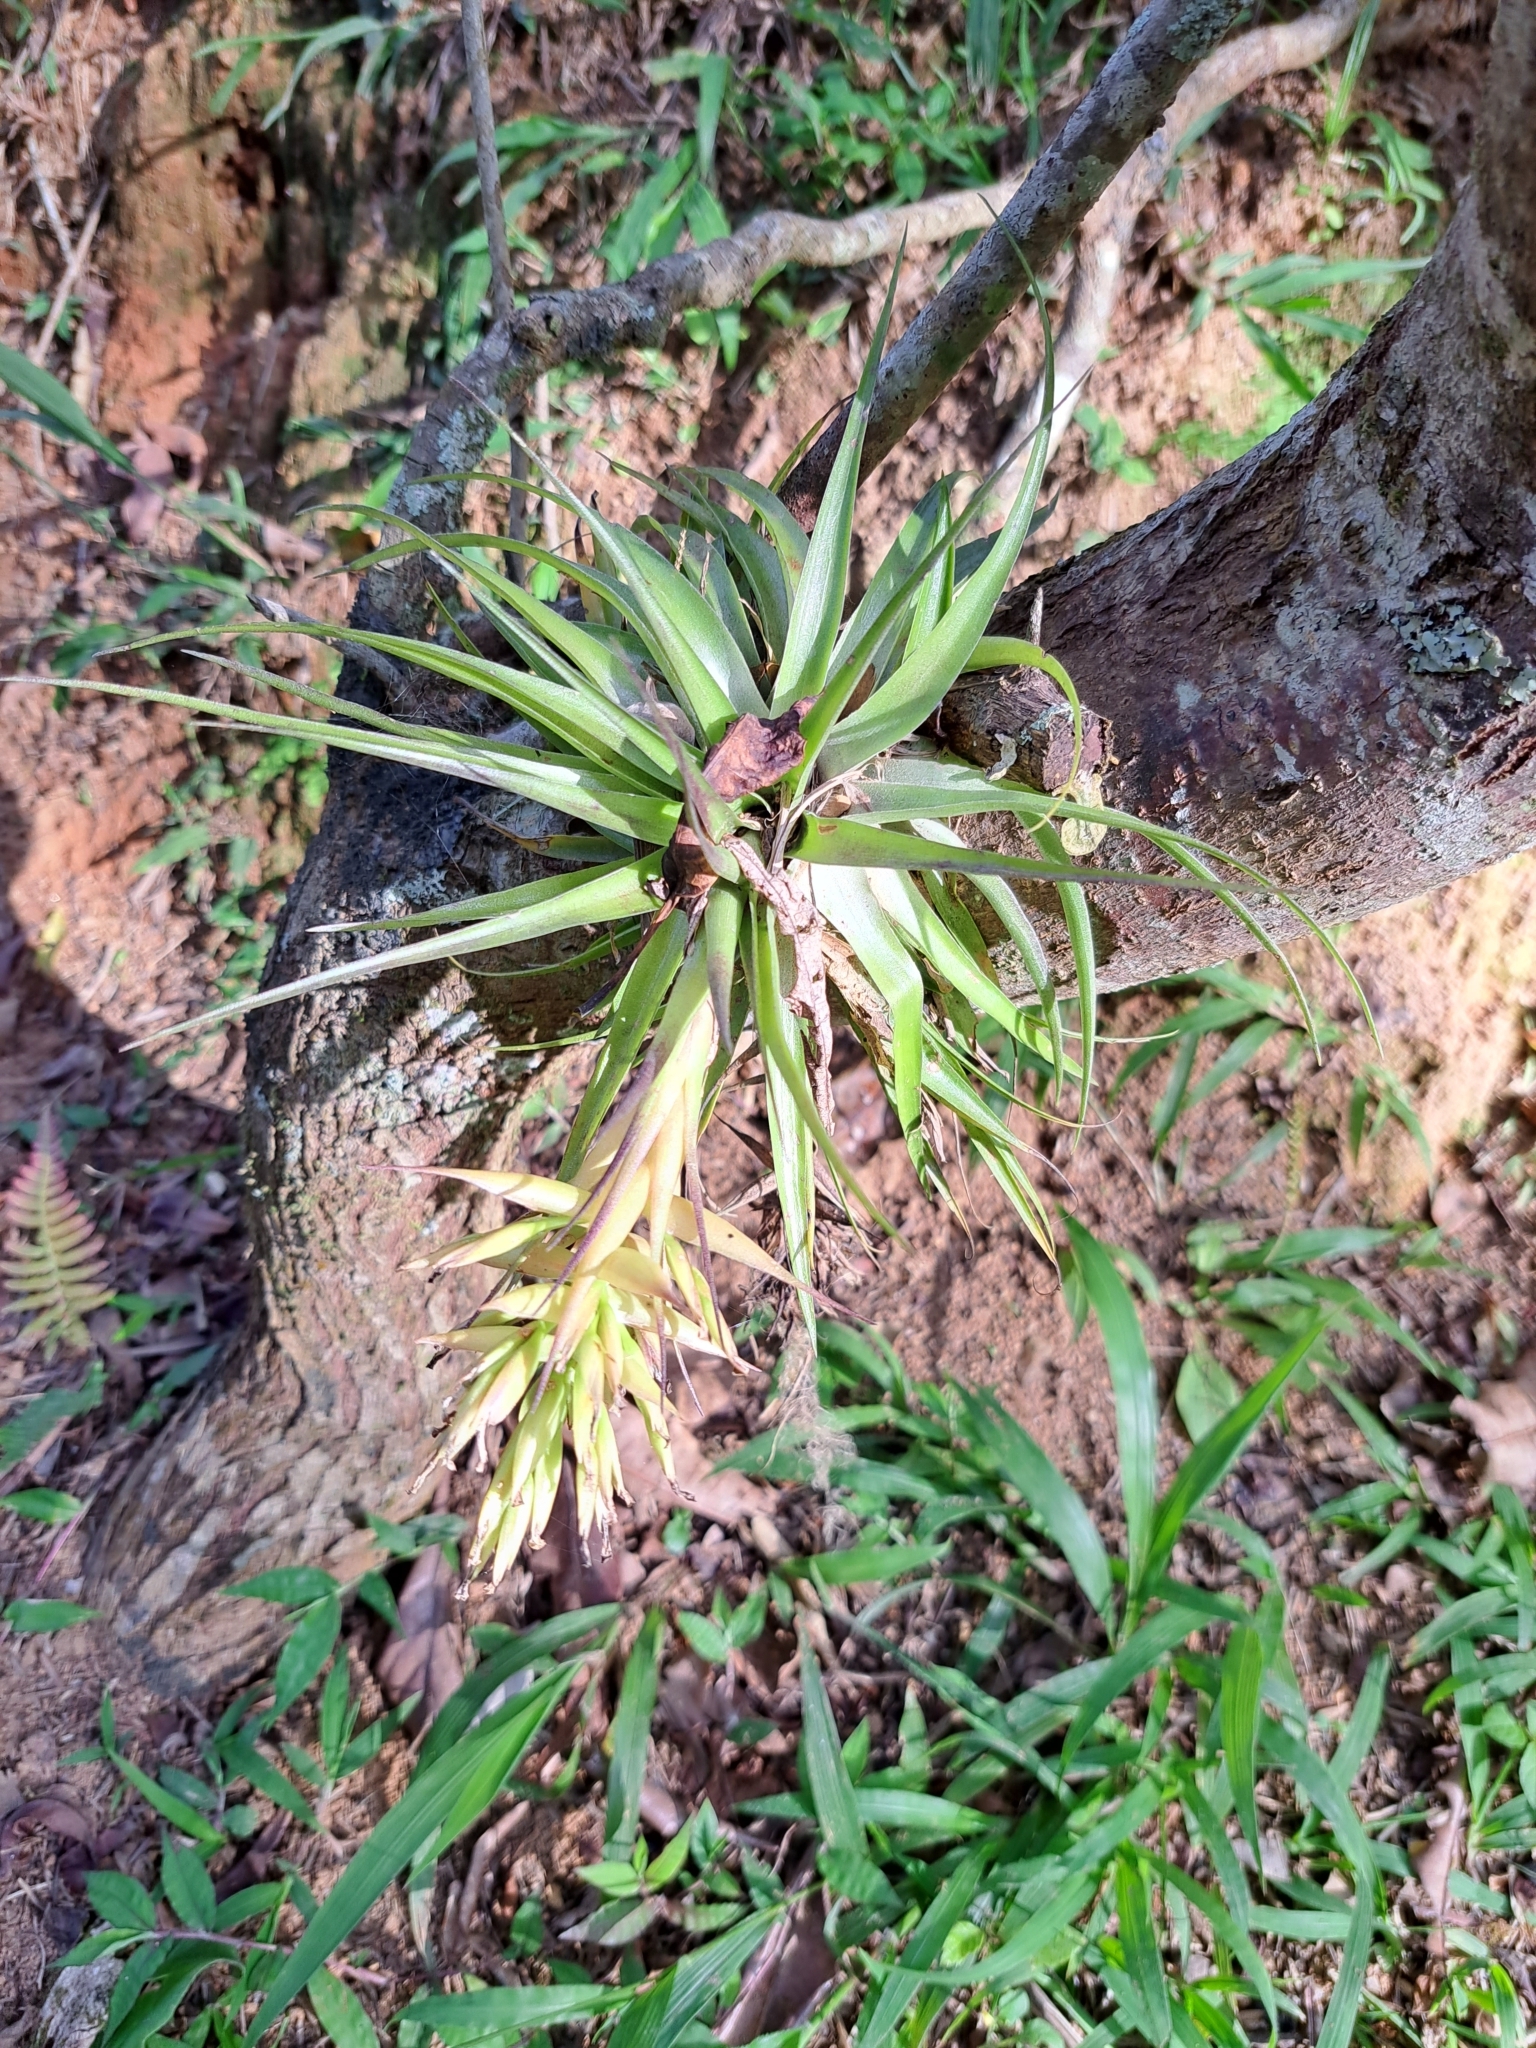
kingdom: Plantae
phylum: Tracheophyta
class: Liliopsida
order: Poales
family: Bromeliaceae
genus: Tillandsia
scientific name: Tillandsia geminiflora
